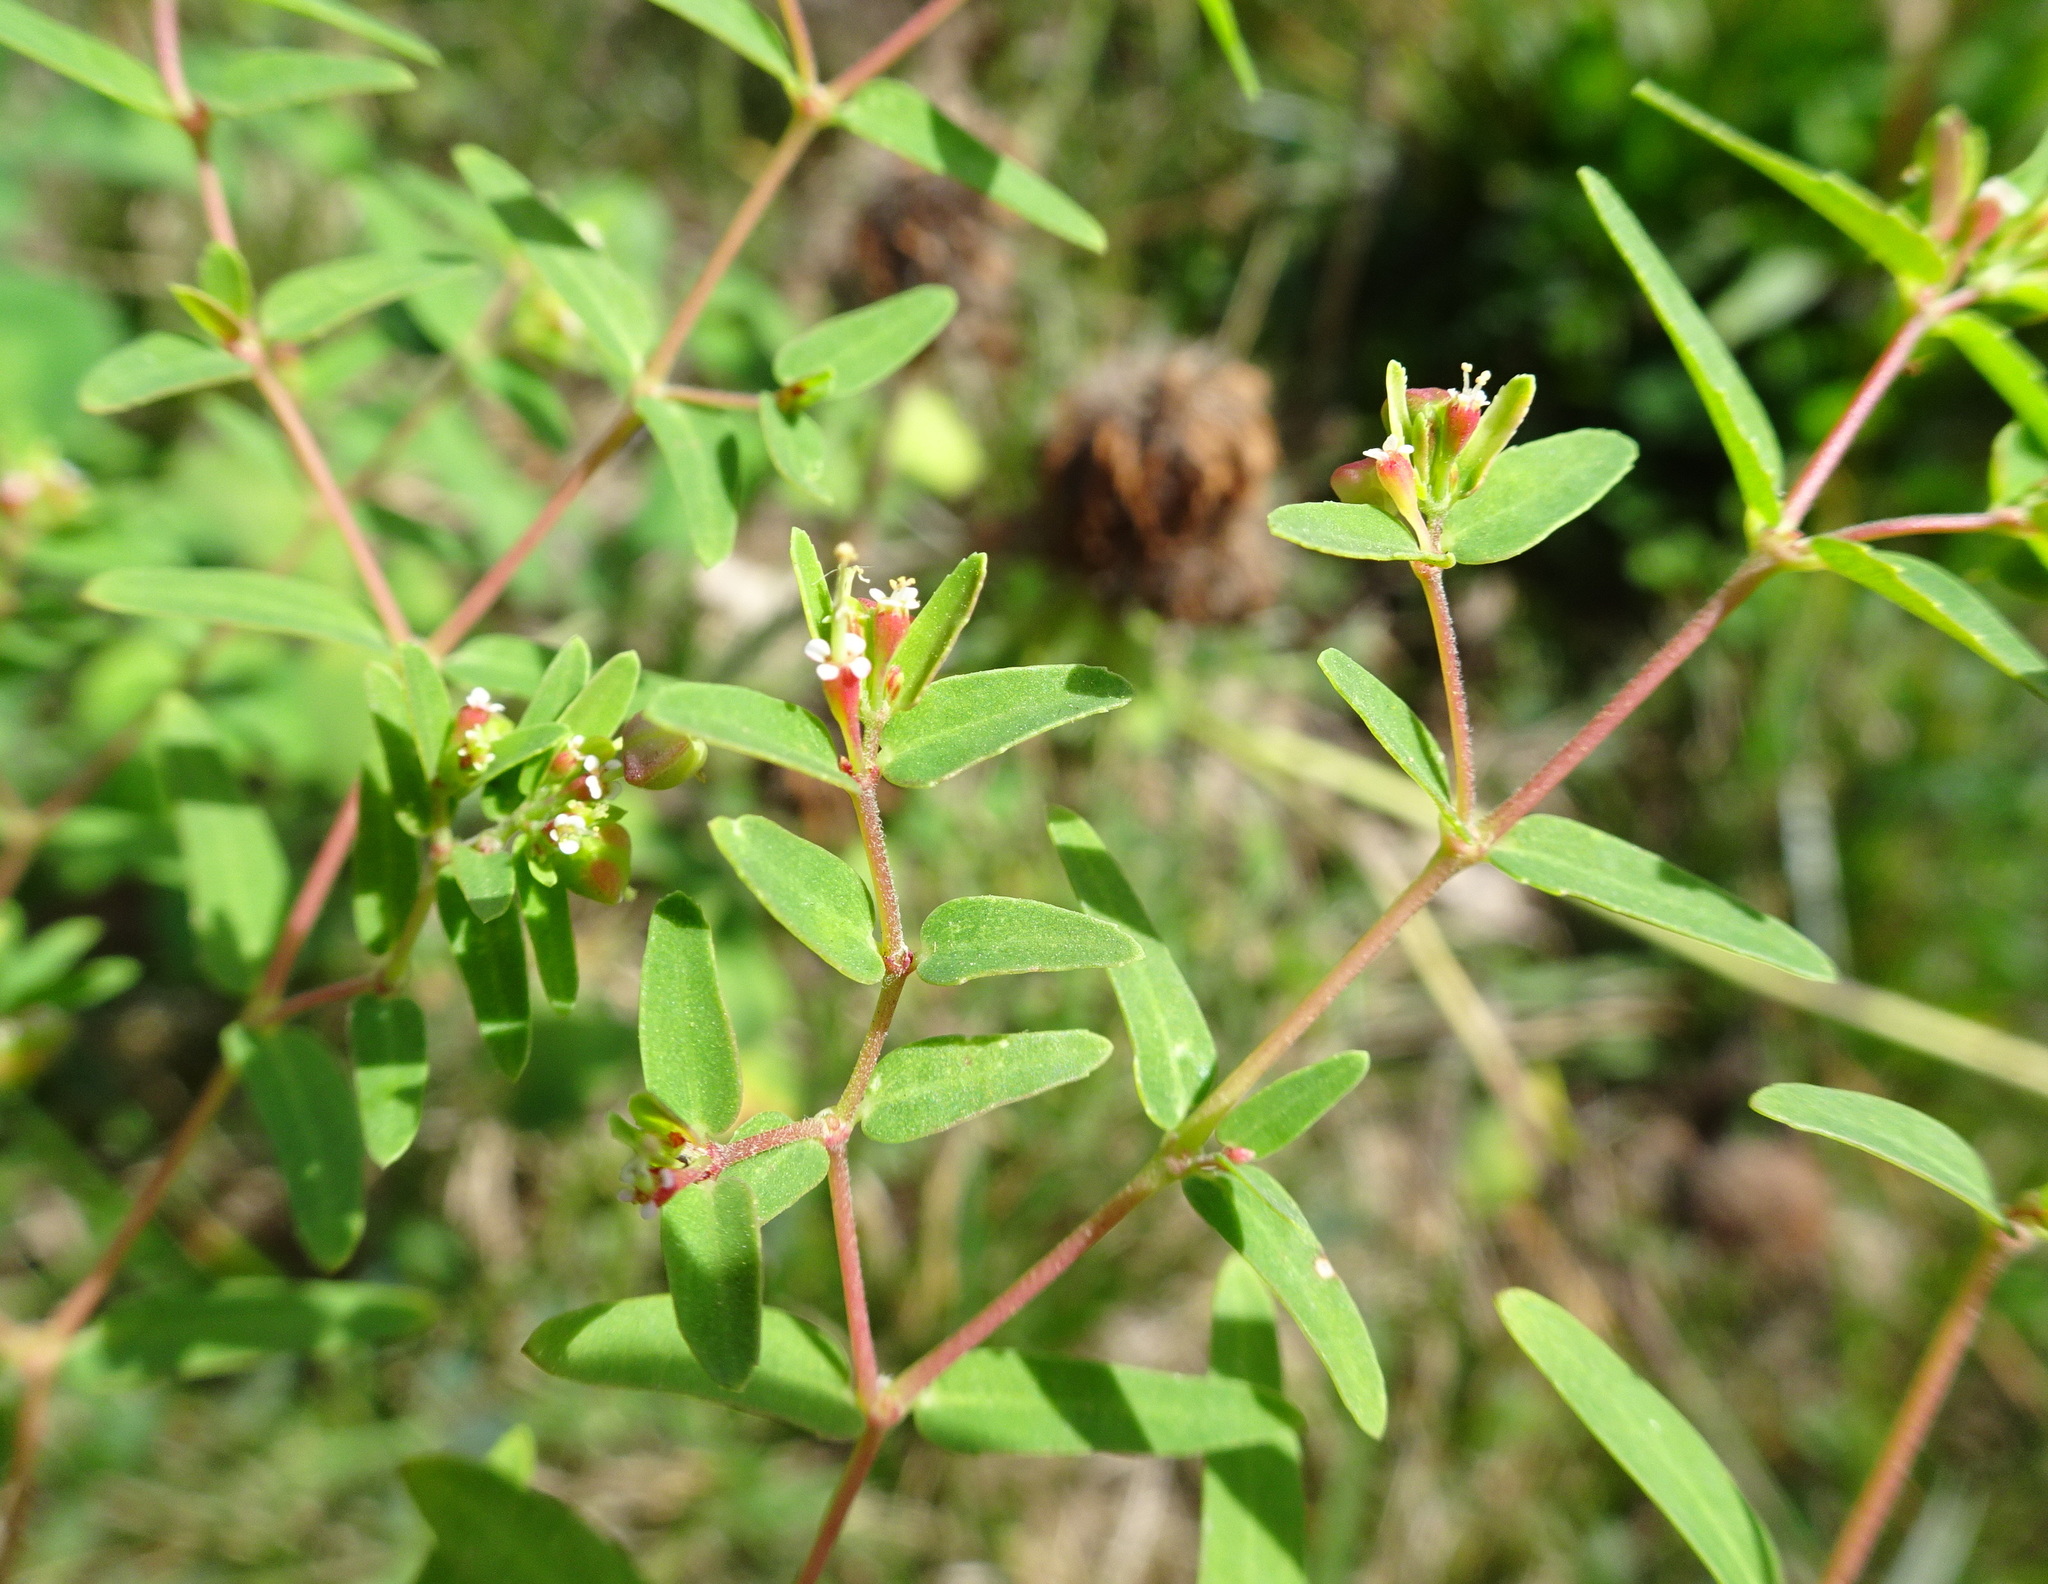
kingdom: Plantae
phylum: Tracheophyta
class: Magnoliopsida
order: Malpighiales
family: Euphorbiaceae
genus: Euphorbia
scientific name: Euphorbia nutans
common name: Eyebane
